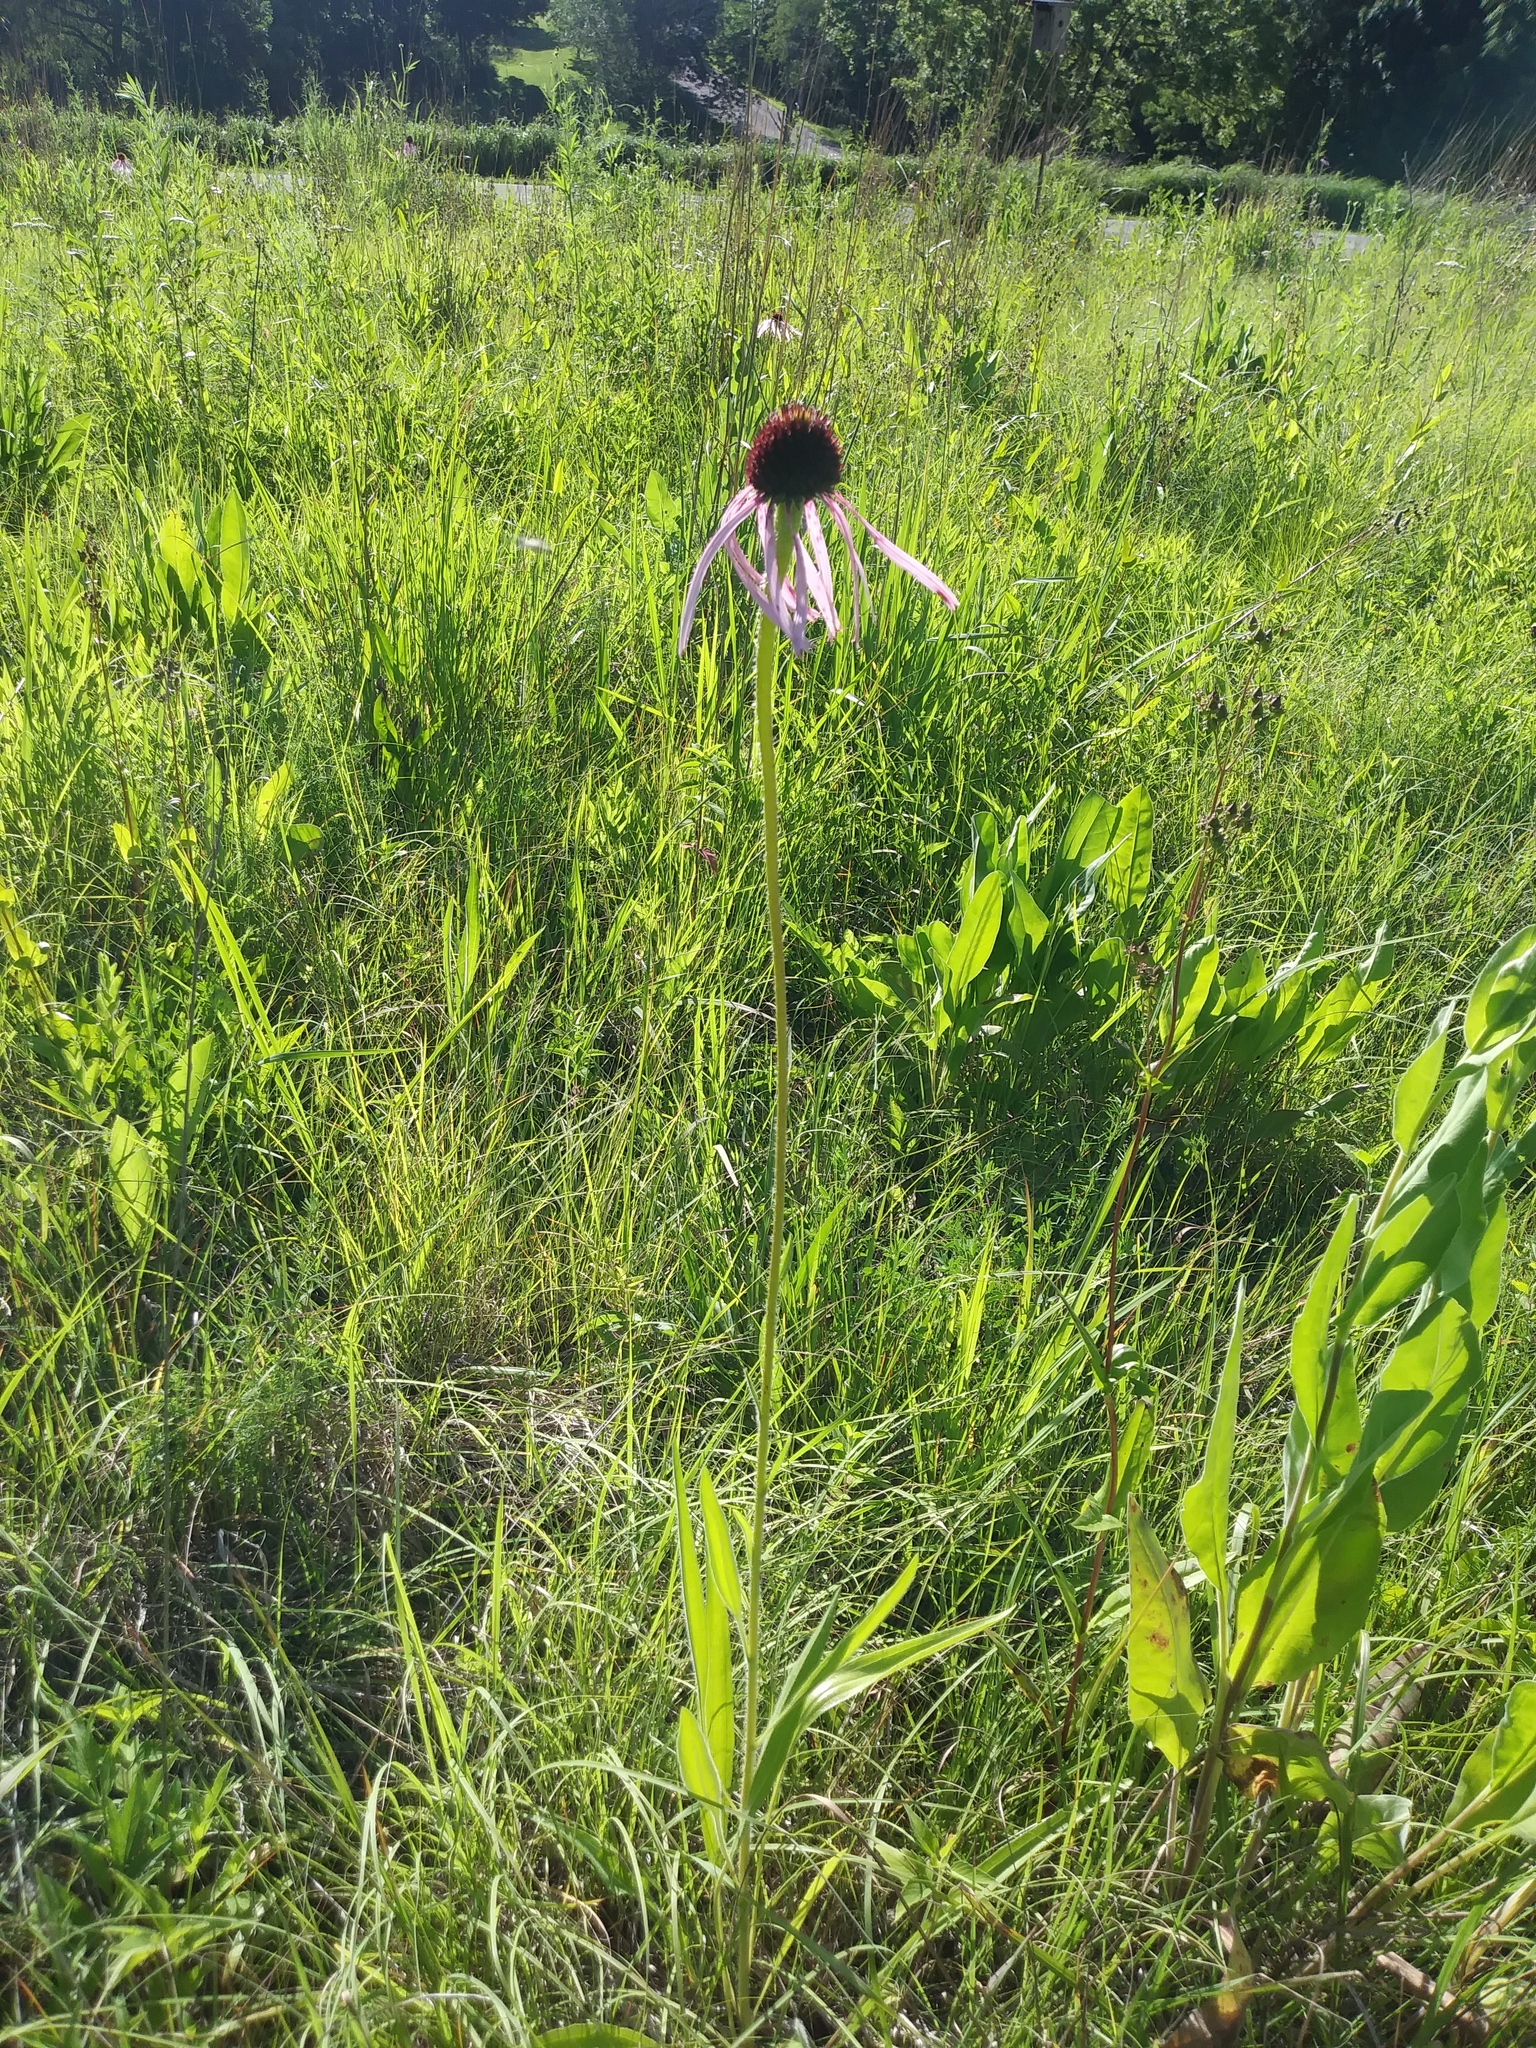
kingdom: Plantae
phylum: Tracheophyta
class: Magnoliopsida
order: Asterales
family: Asteraceae
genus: Echinacea
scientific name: Echinacea pallida
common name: Pale echinacea
